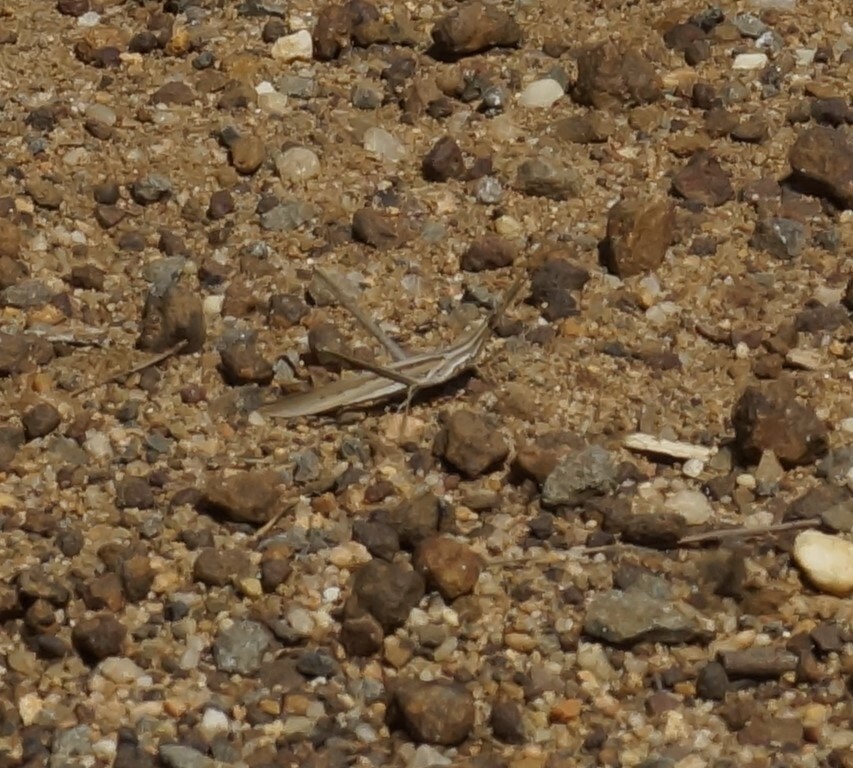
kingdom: Animalia
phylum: Arthropoda
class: Insecta
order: Orthoptera
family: Acrididae
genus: Acrida
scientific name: Acrida conica
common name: Giant green slantface
